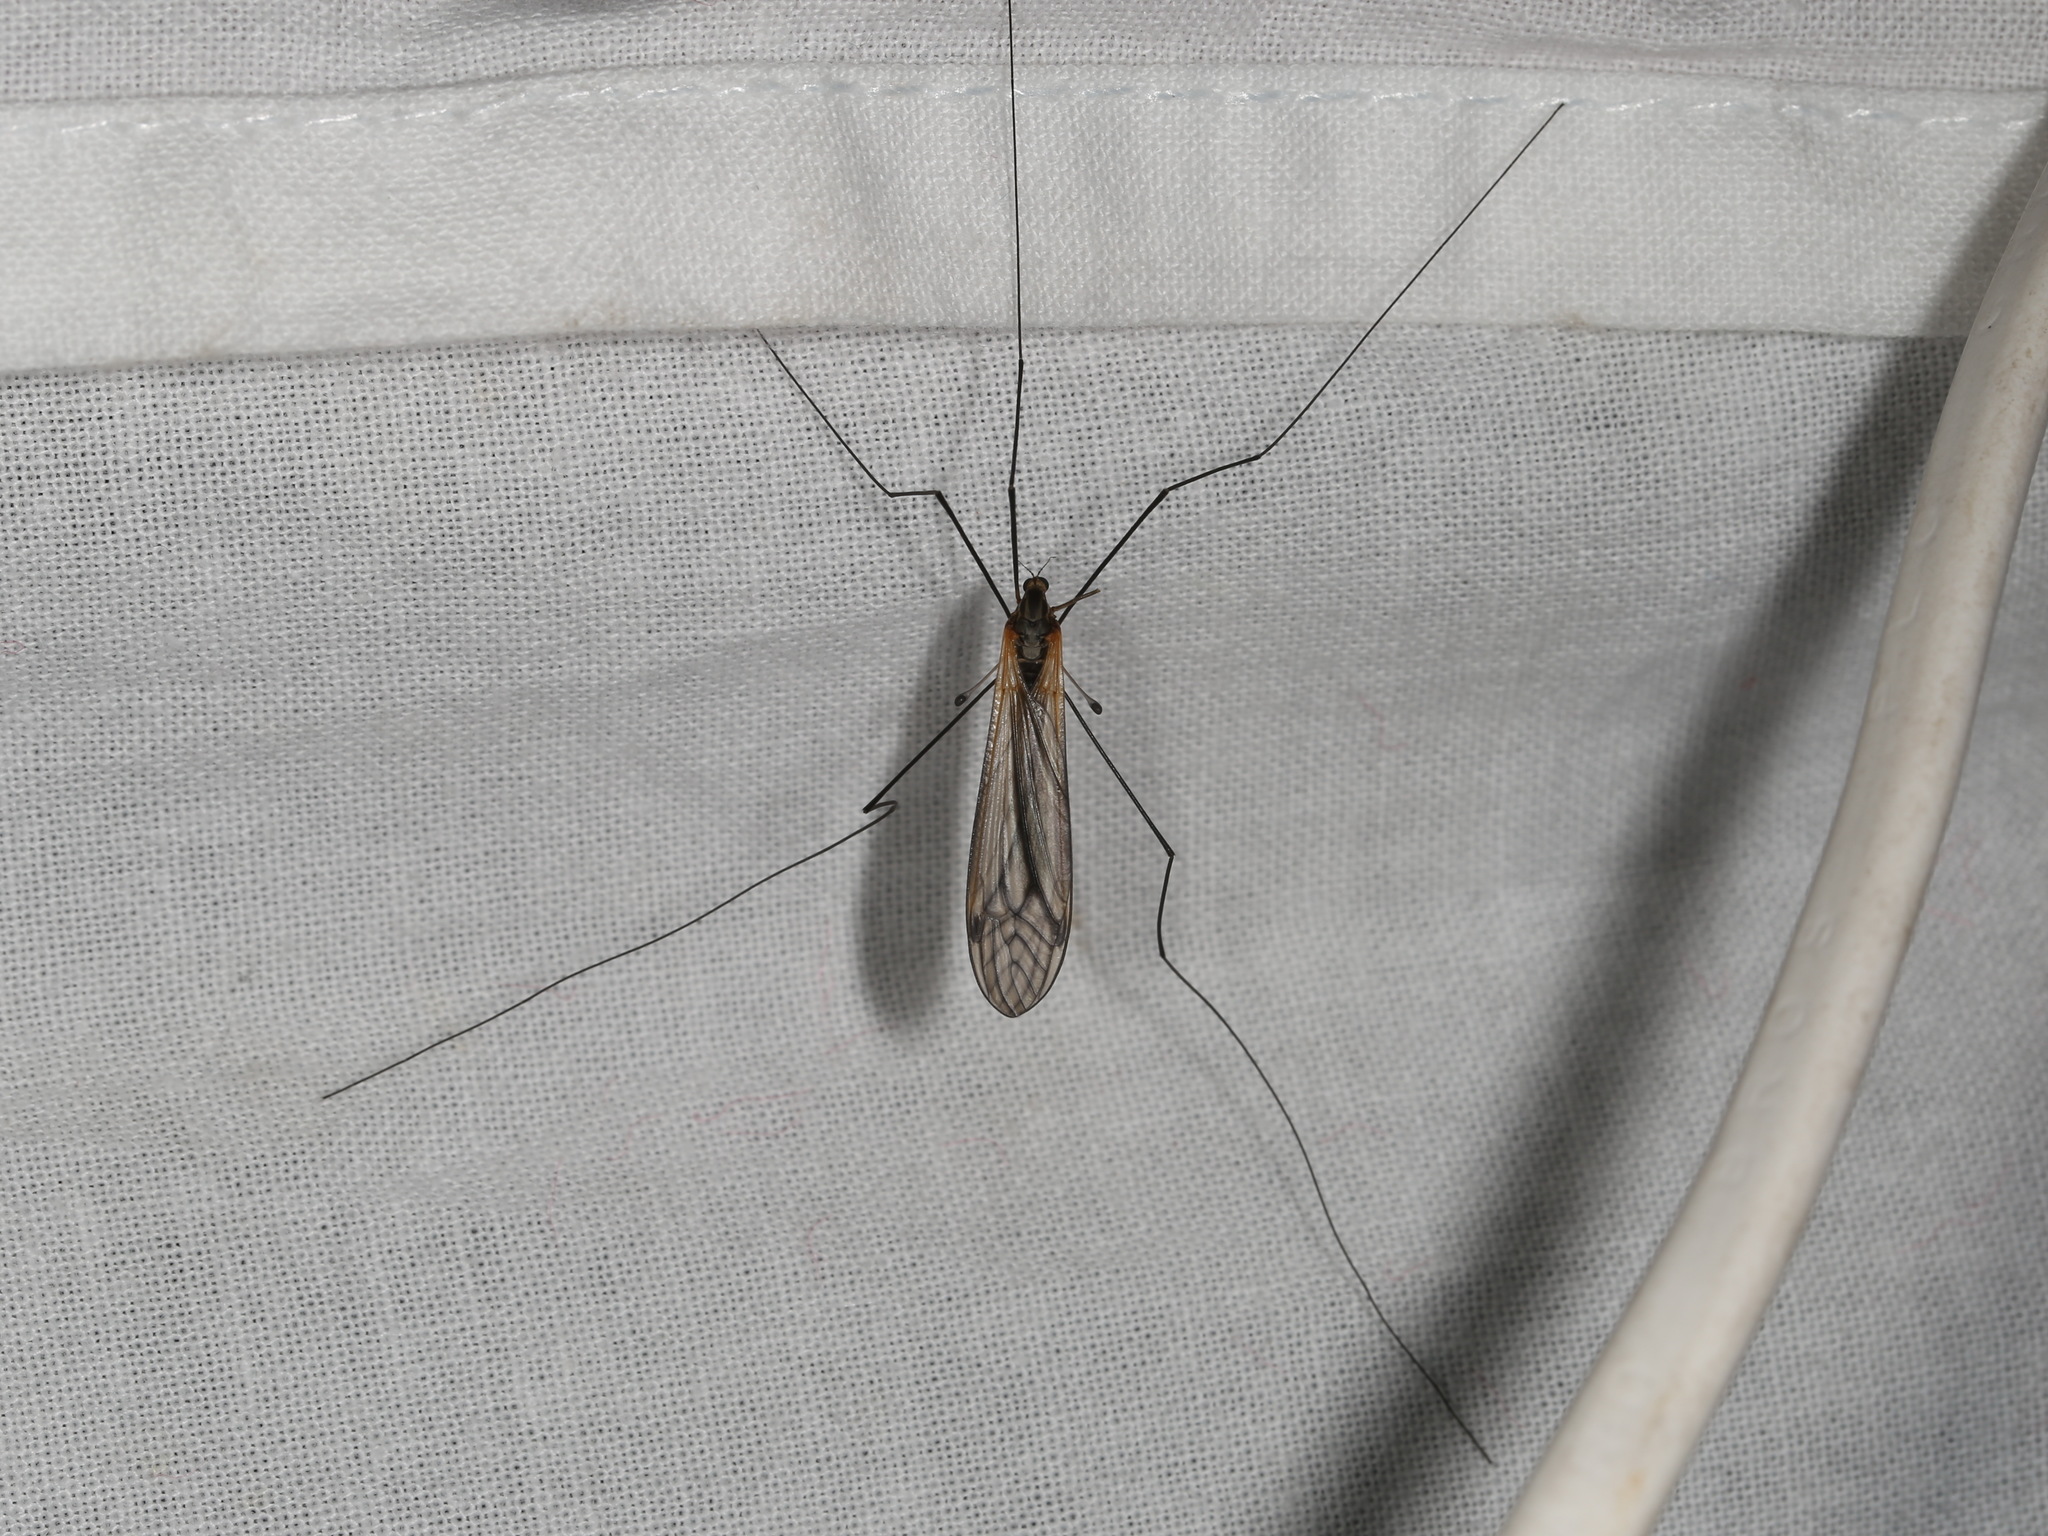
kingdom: Animalia
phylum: Arthropoda
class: Insecta
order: Diptera
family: Tipulidae
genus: Leptotarsus
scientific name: Leptotarsus fergusoni
